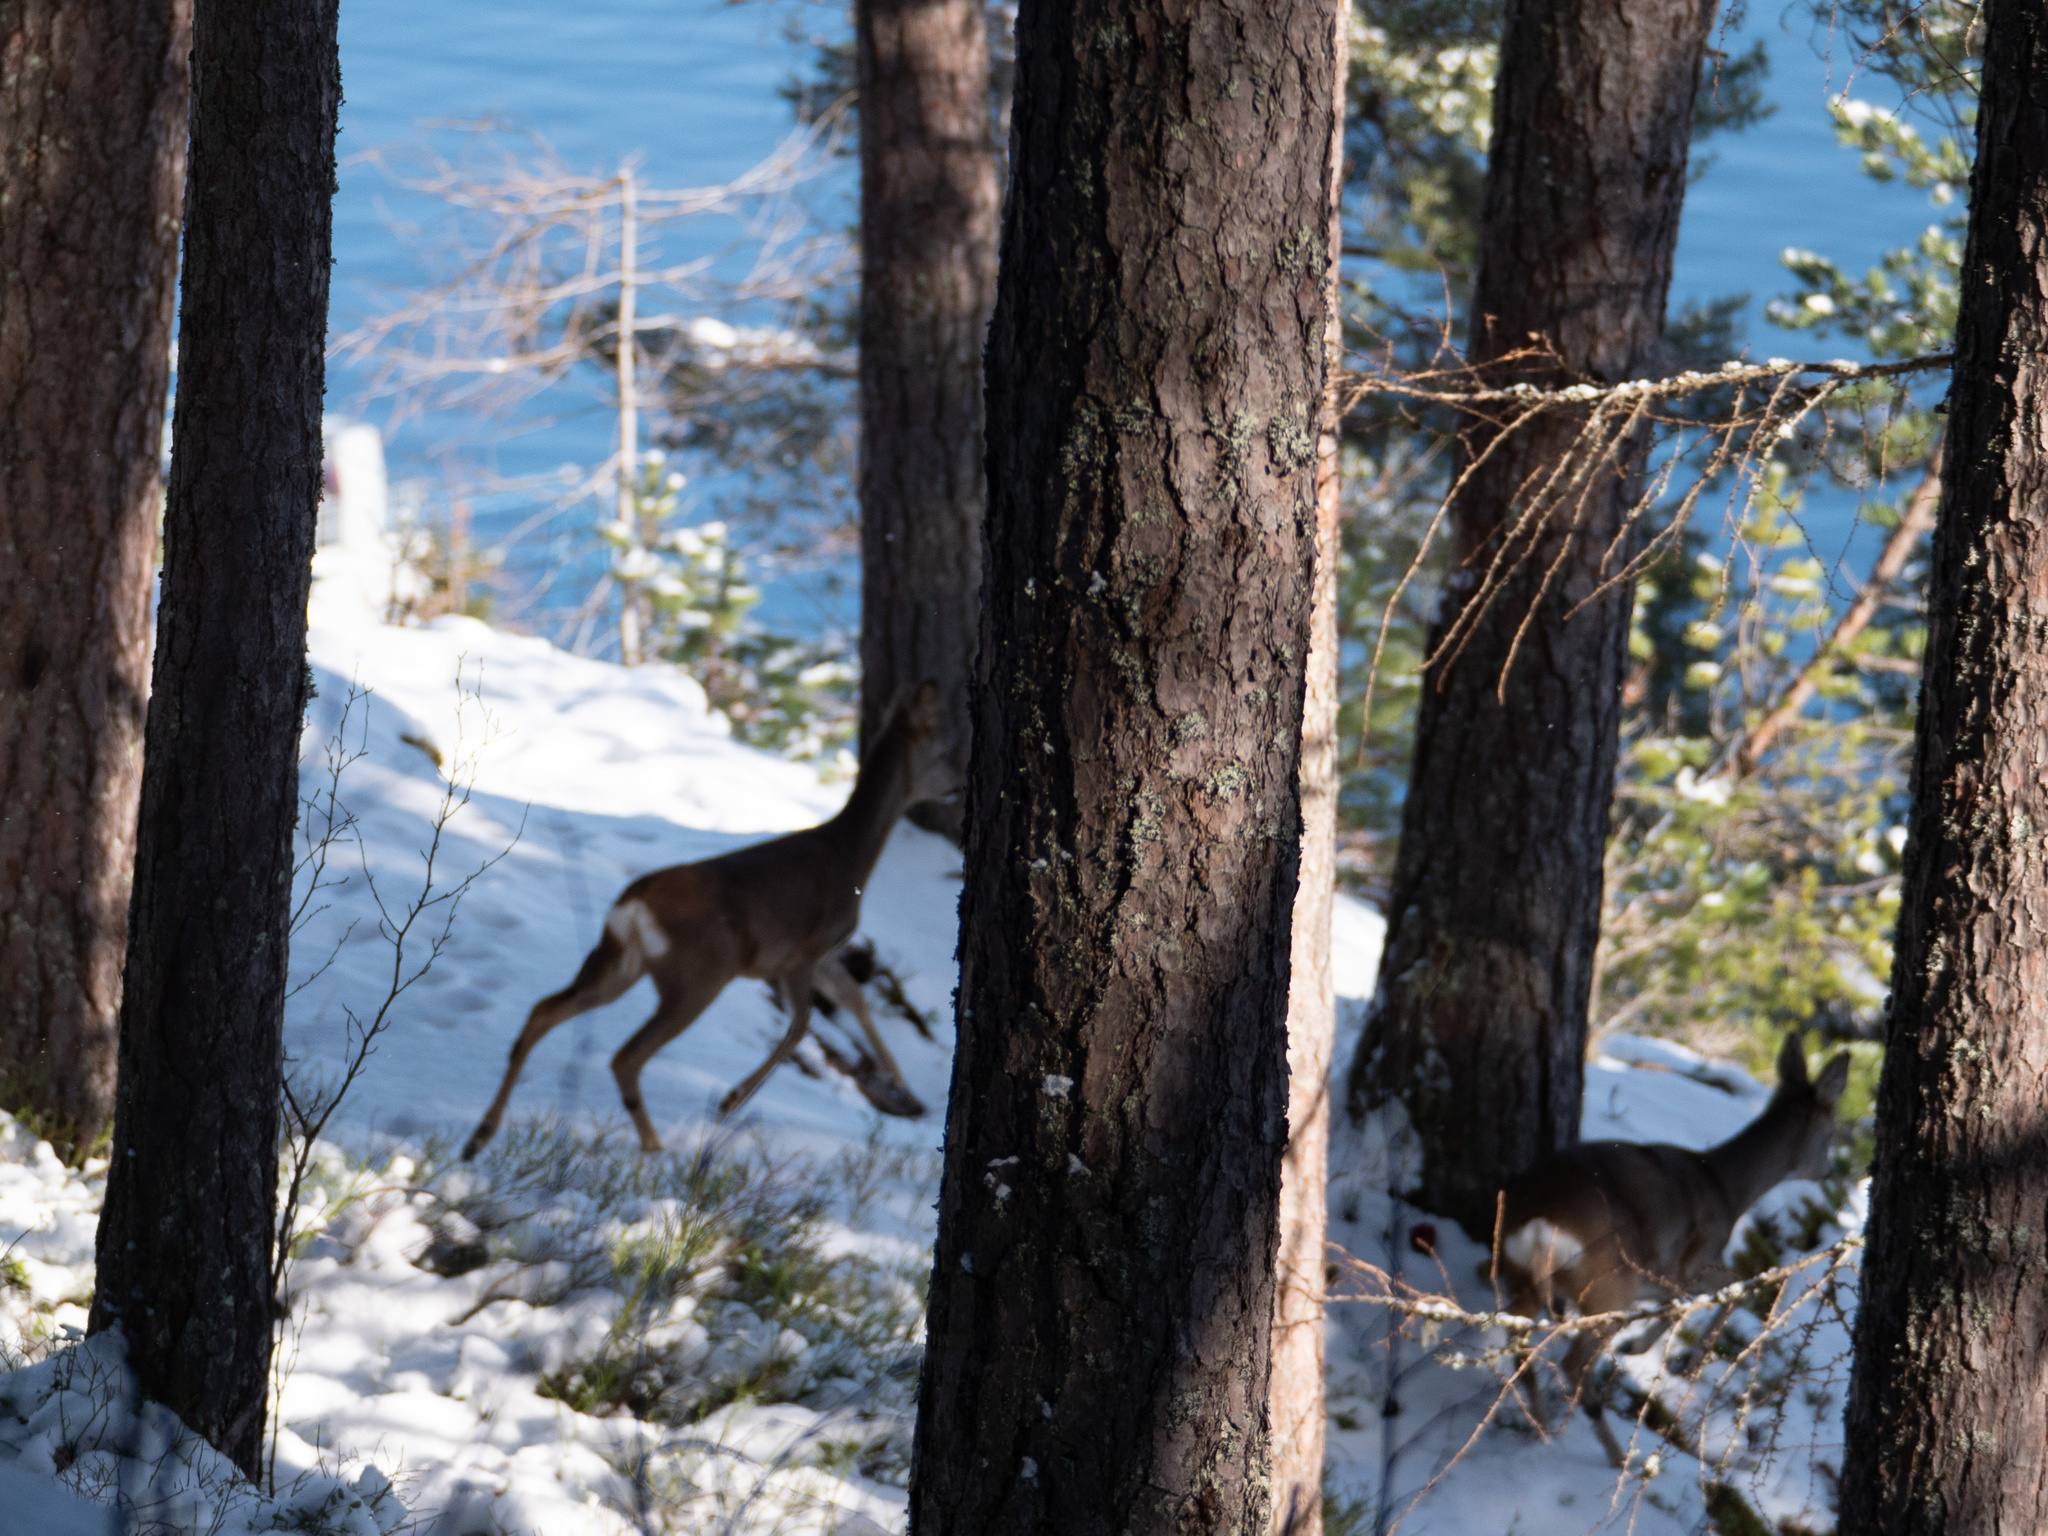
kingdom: Animalia
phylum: Chordata
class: Mammalia
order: Artiodactyla
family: Cervidae
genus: Capreolus
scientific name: Capreolus capreolus
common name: Western roe deer
